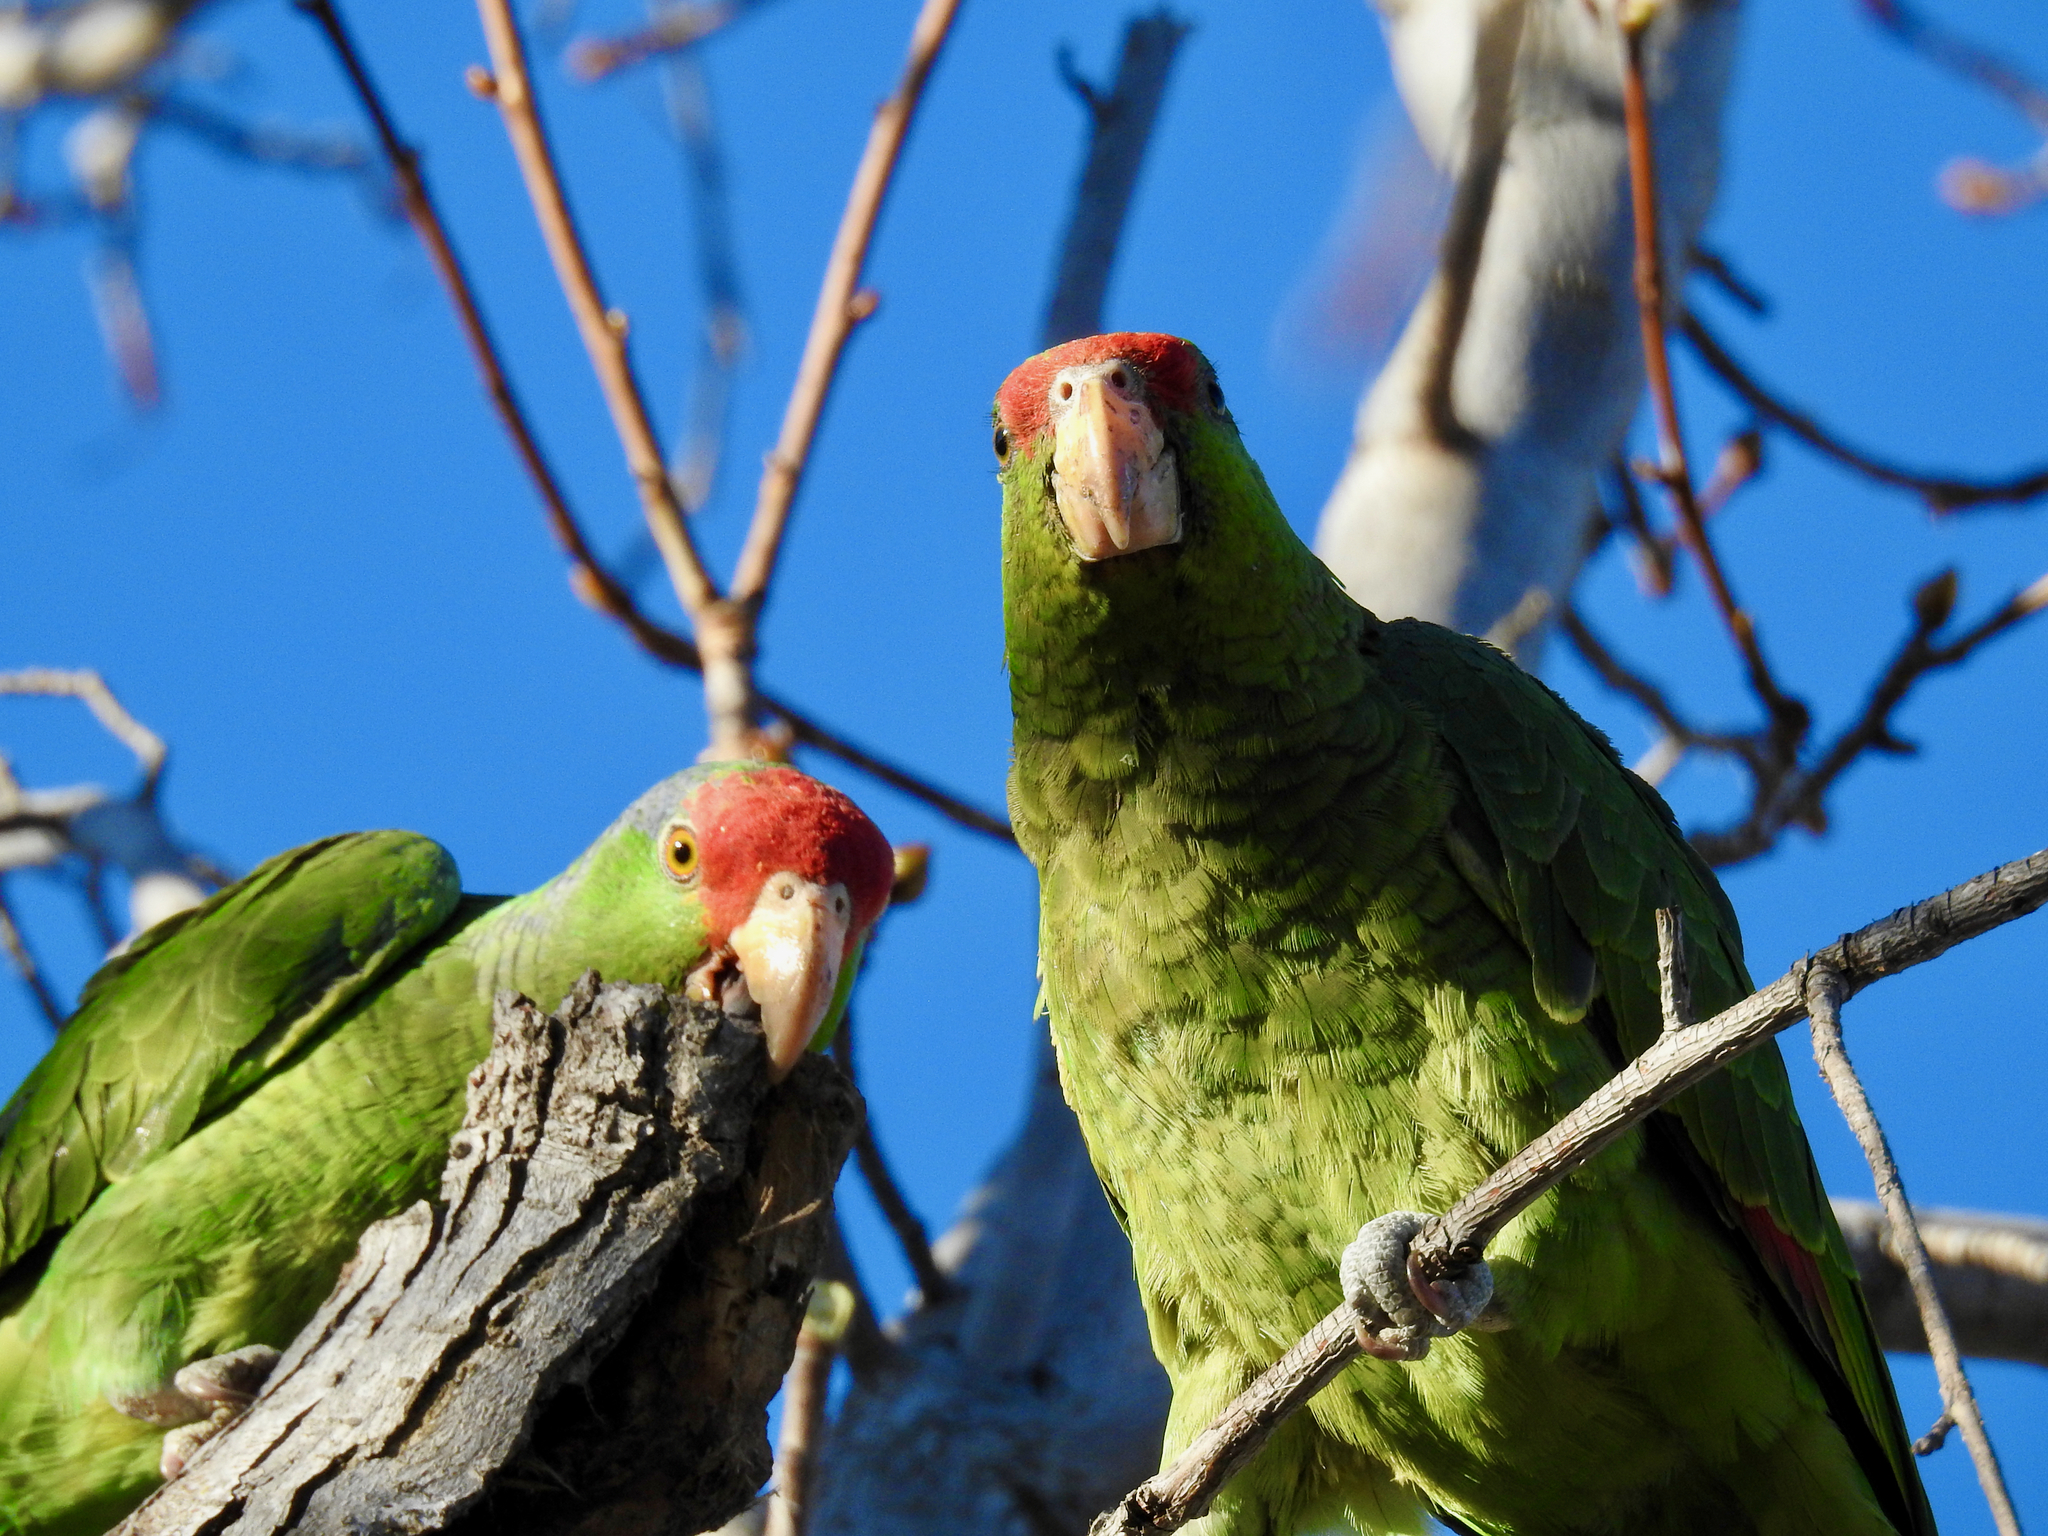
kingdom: Animalia
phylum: Chordata
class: Aves
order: Psittaciformes
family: Psittacidae
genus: Amazona
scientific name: Amazona viridigenalis
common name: Red-crowned amazon
